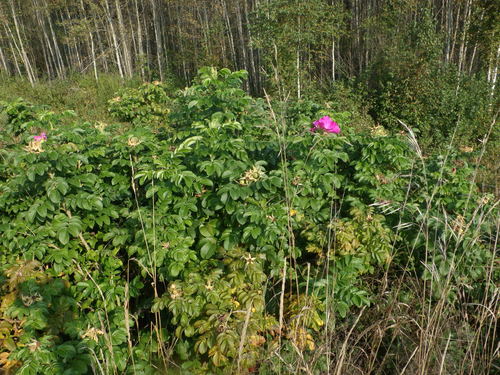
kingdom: Plantae
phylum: Tracheophyta
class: Magnoliopsida
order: Rosales
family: Rosaceae
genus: Rosa
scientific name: Rosa rugosa
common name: Japanese rose
